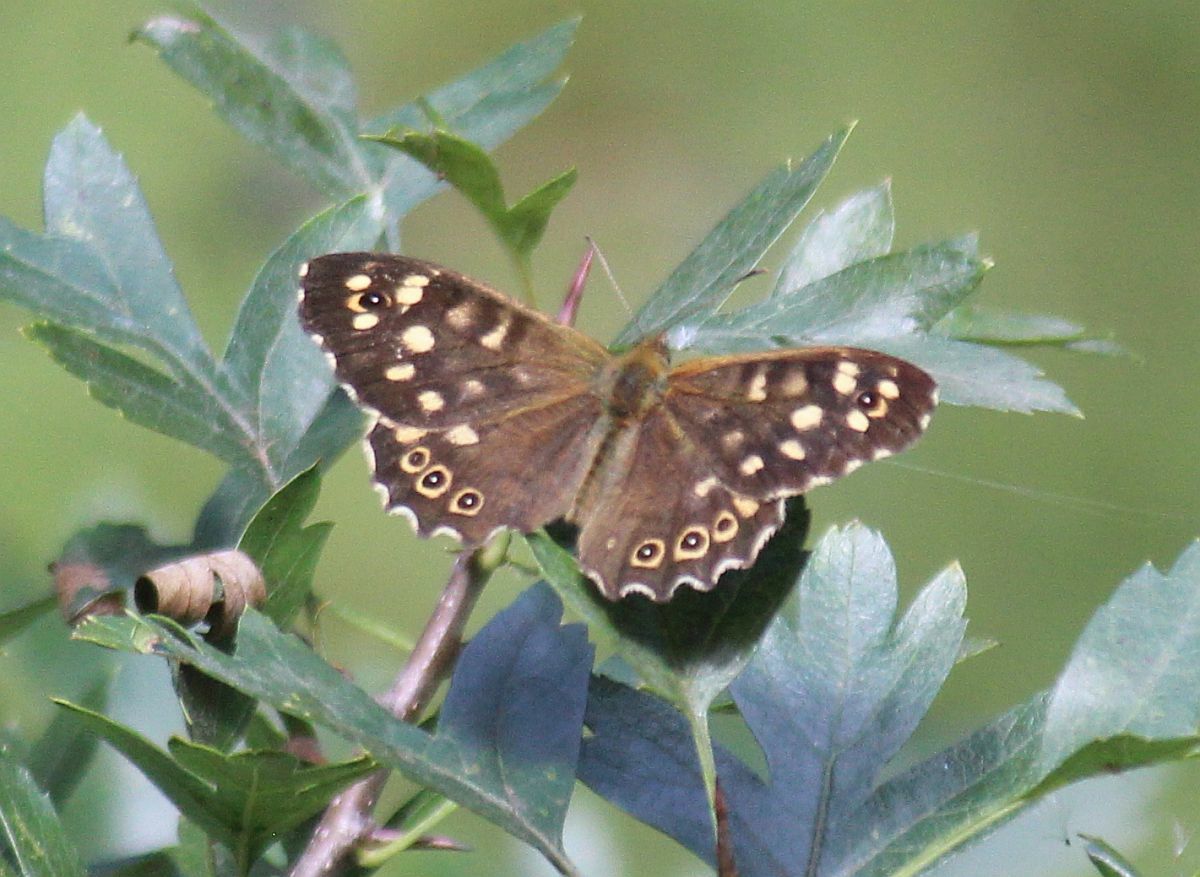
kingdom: Animalia
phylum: Arthropoda
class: Insecta
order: Lepidoptera
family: Nymphalidae
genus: Pararge
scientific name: Pararge aegeria
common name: Speckled wood
